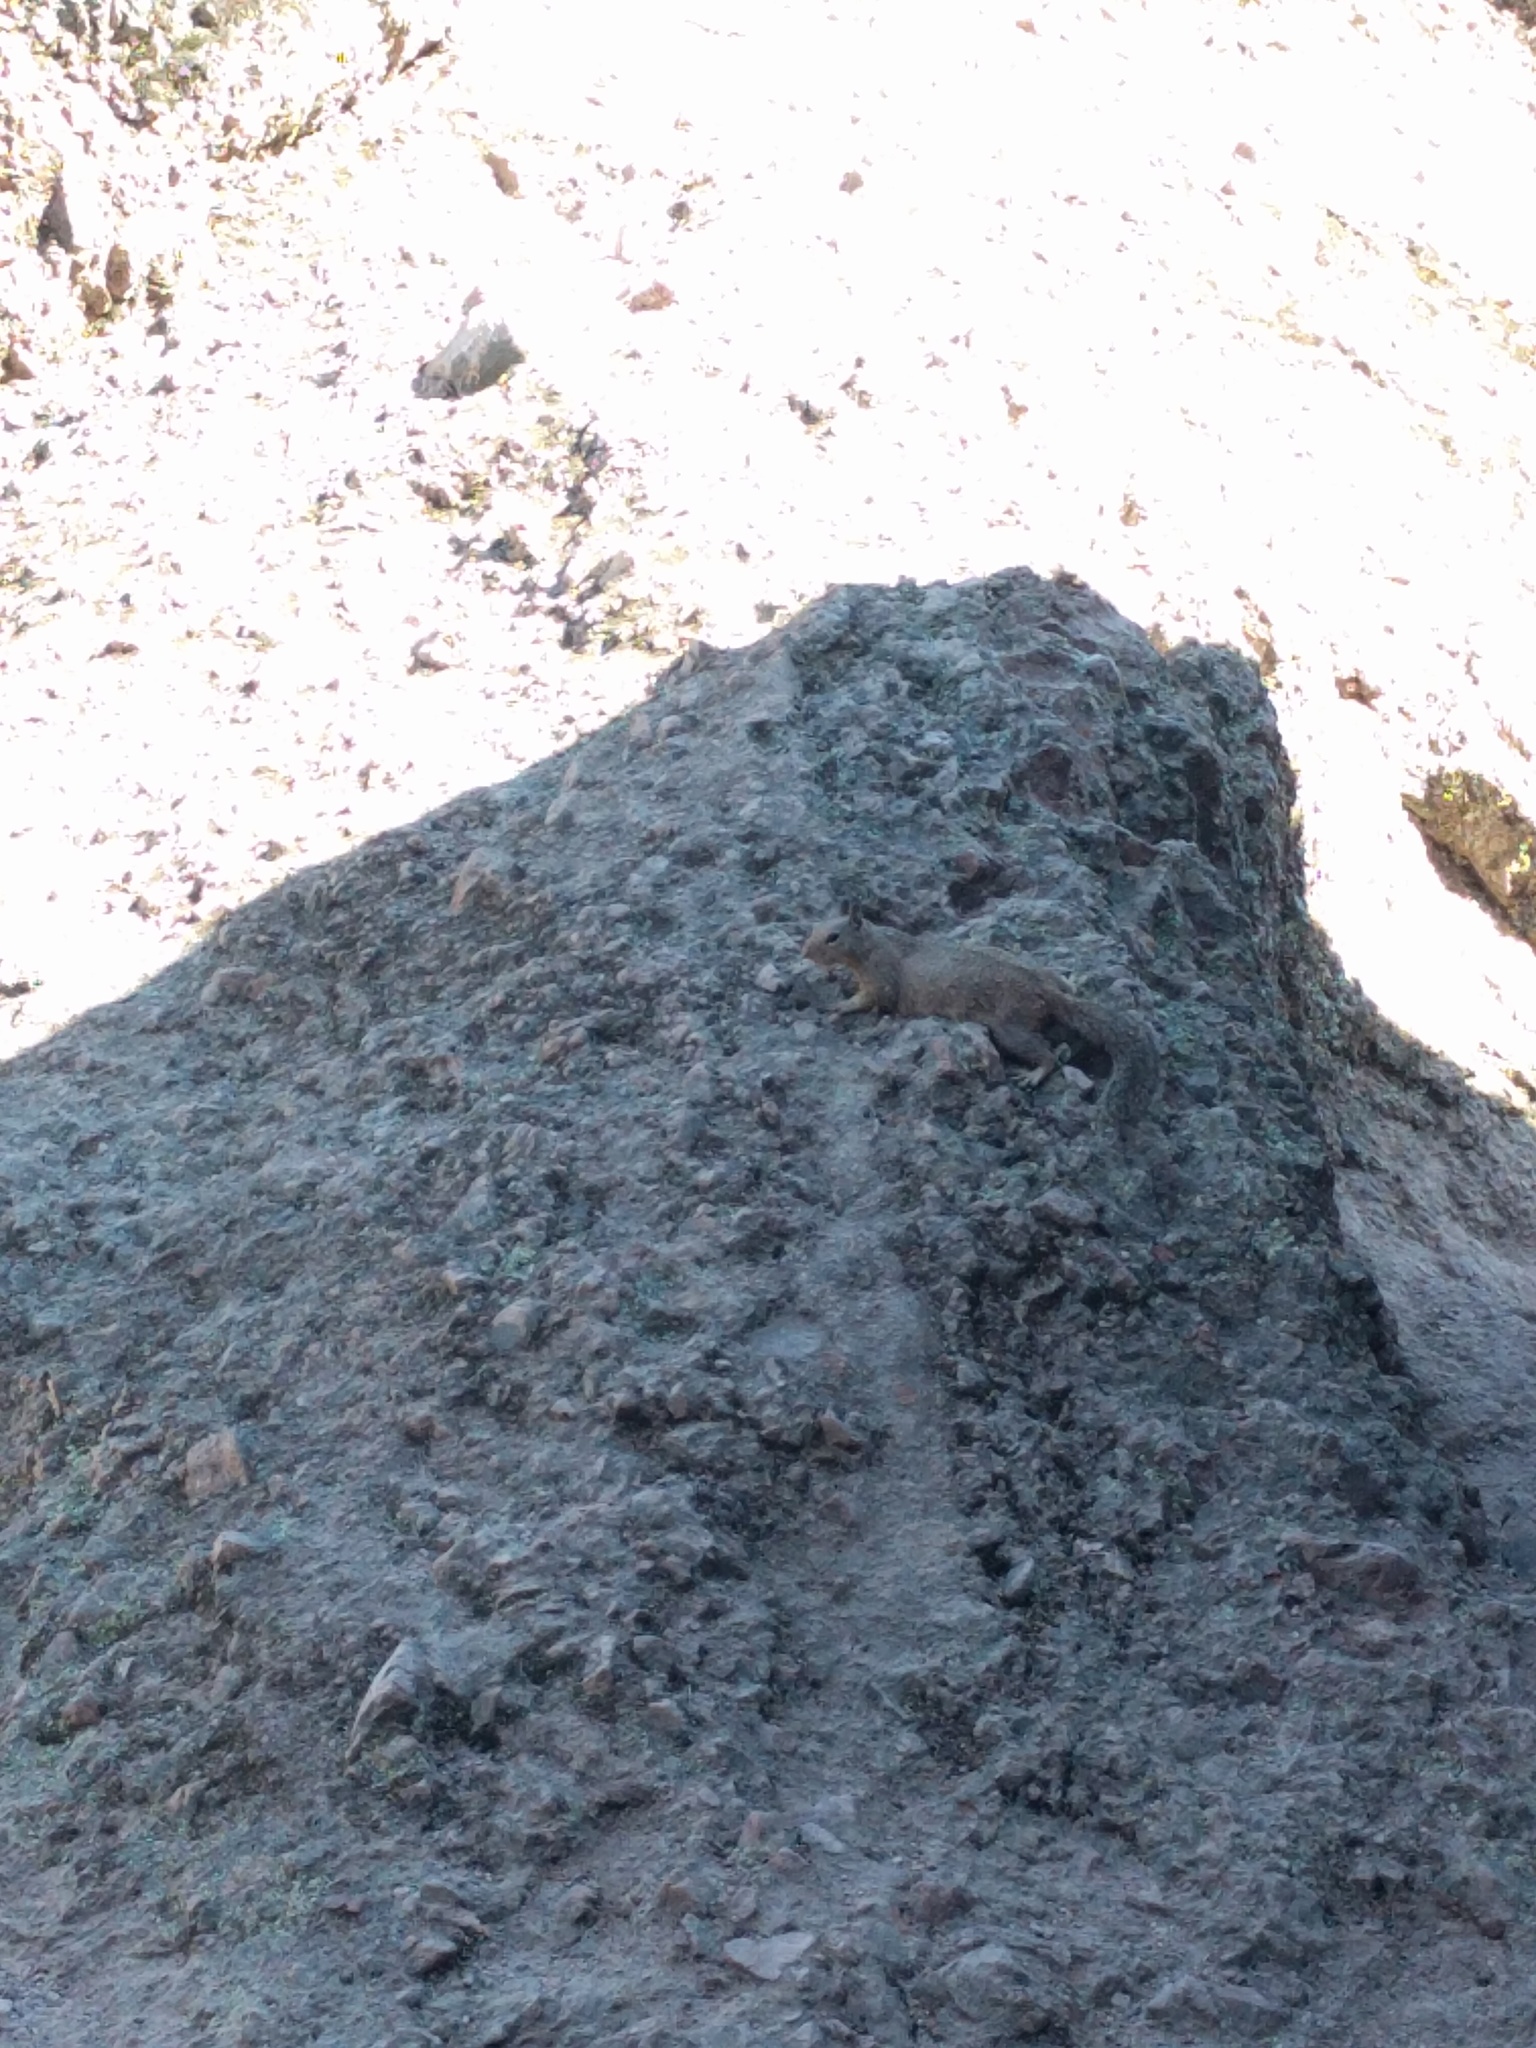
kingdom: Animalia
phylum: Chordata
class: Mammalia
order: Rodentia
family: Sciuridae
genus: Otospermophilus
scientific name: Otospermophilus beecheyi
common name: California ground squirrel
